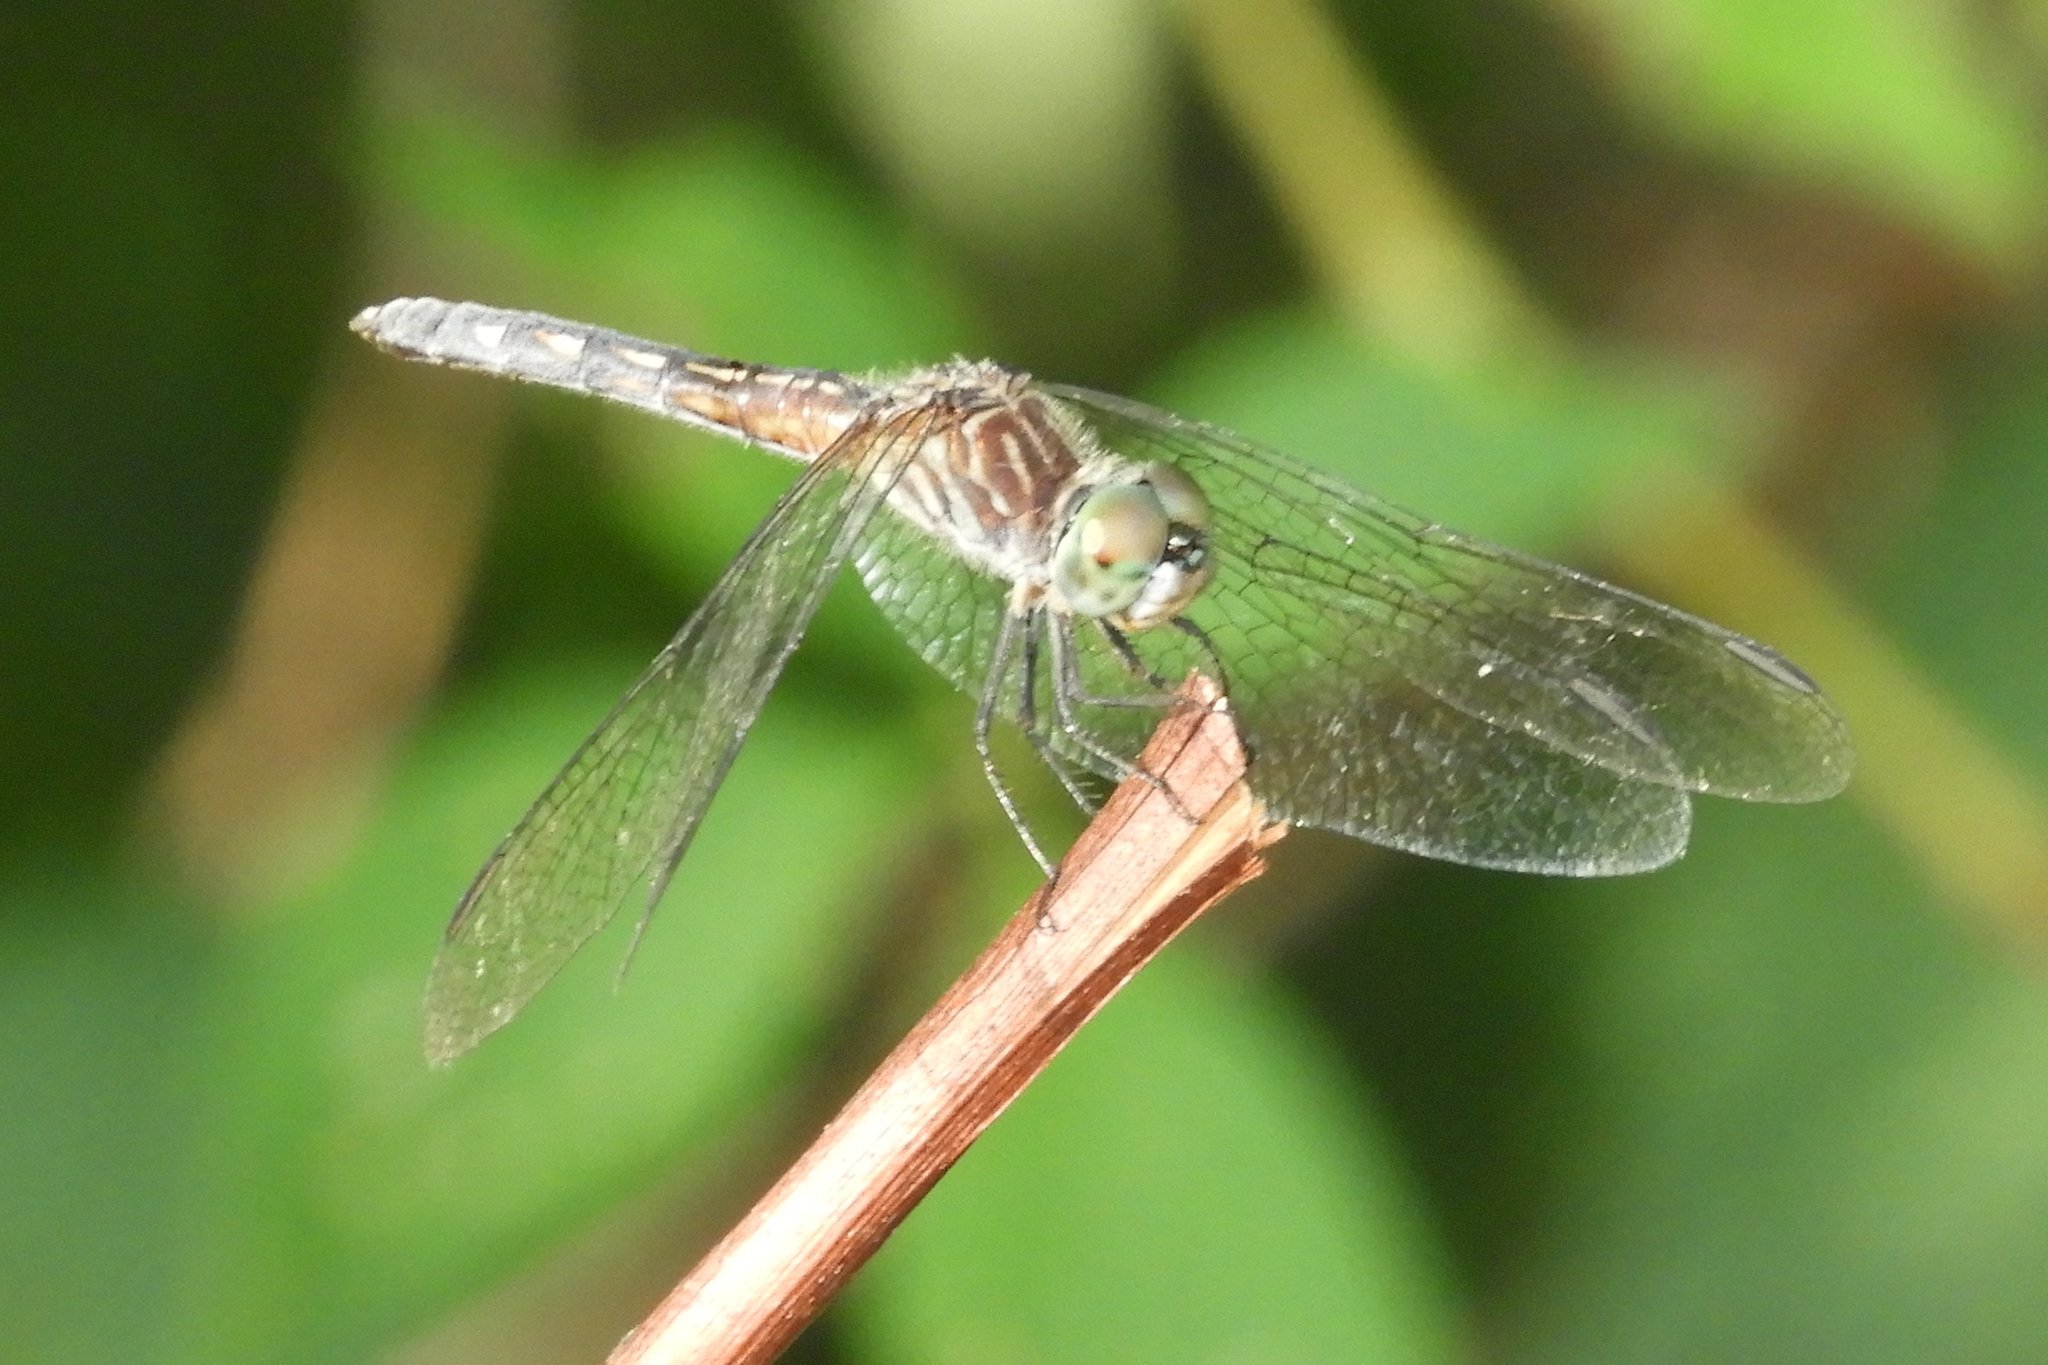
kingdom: Animalia
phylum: Arthropoda
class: Insecta
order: Odonata
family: Libellulidae
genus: Pachydiplax
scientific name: Pachydiplax longipennis
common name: Blue dasher
